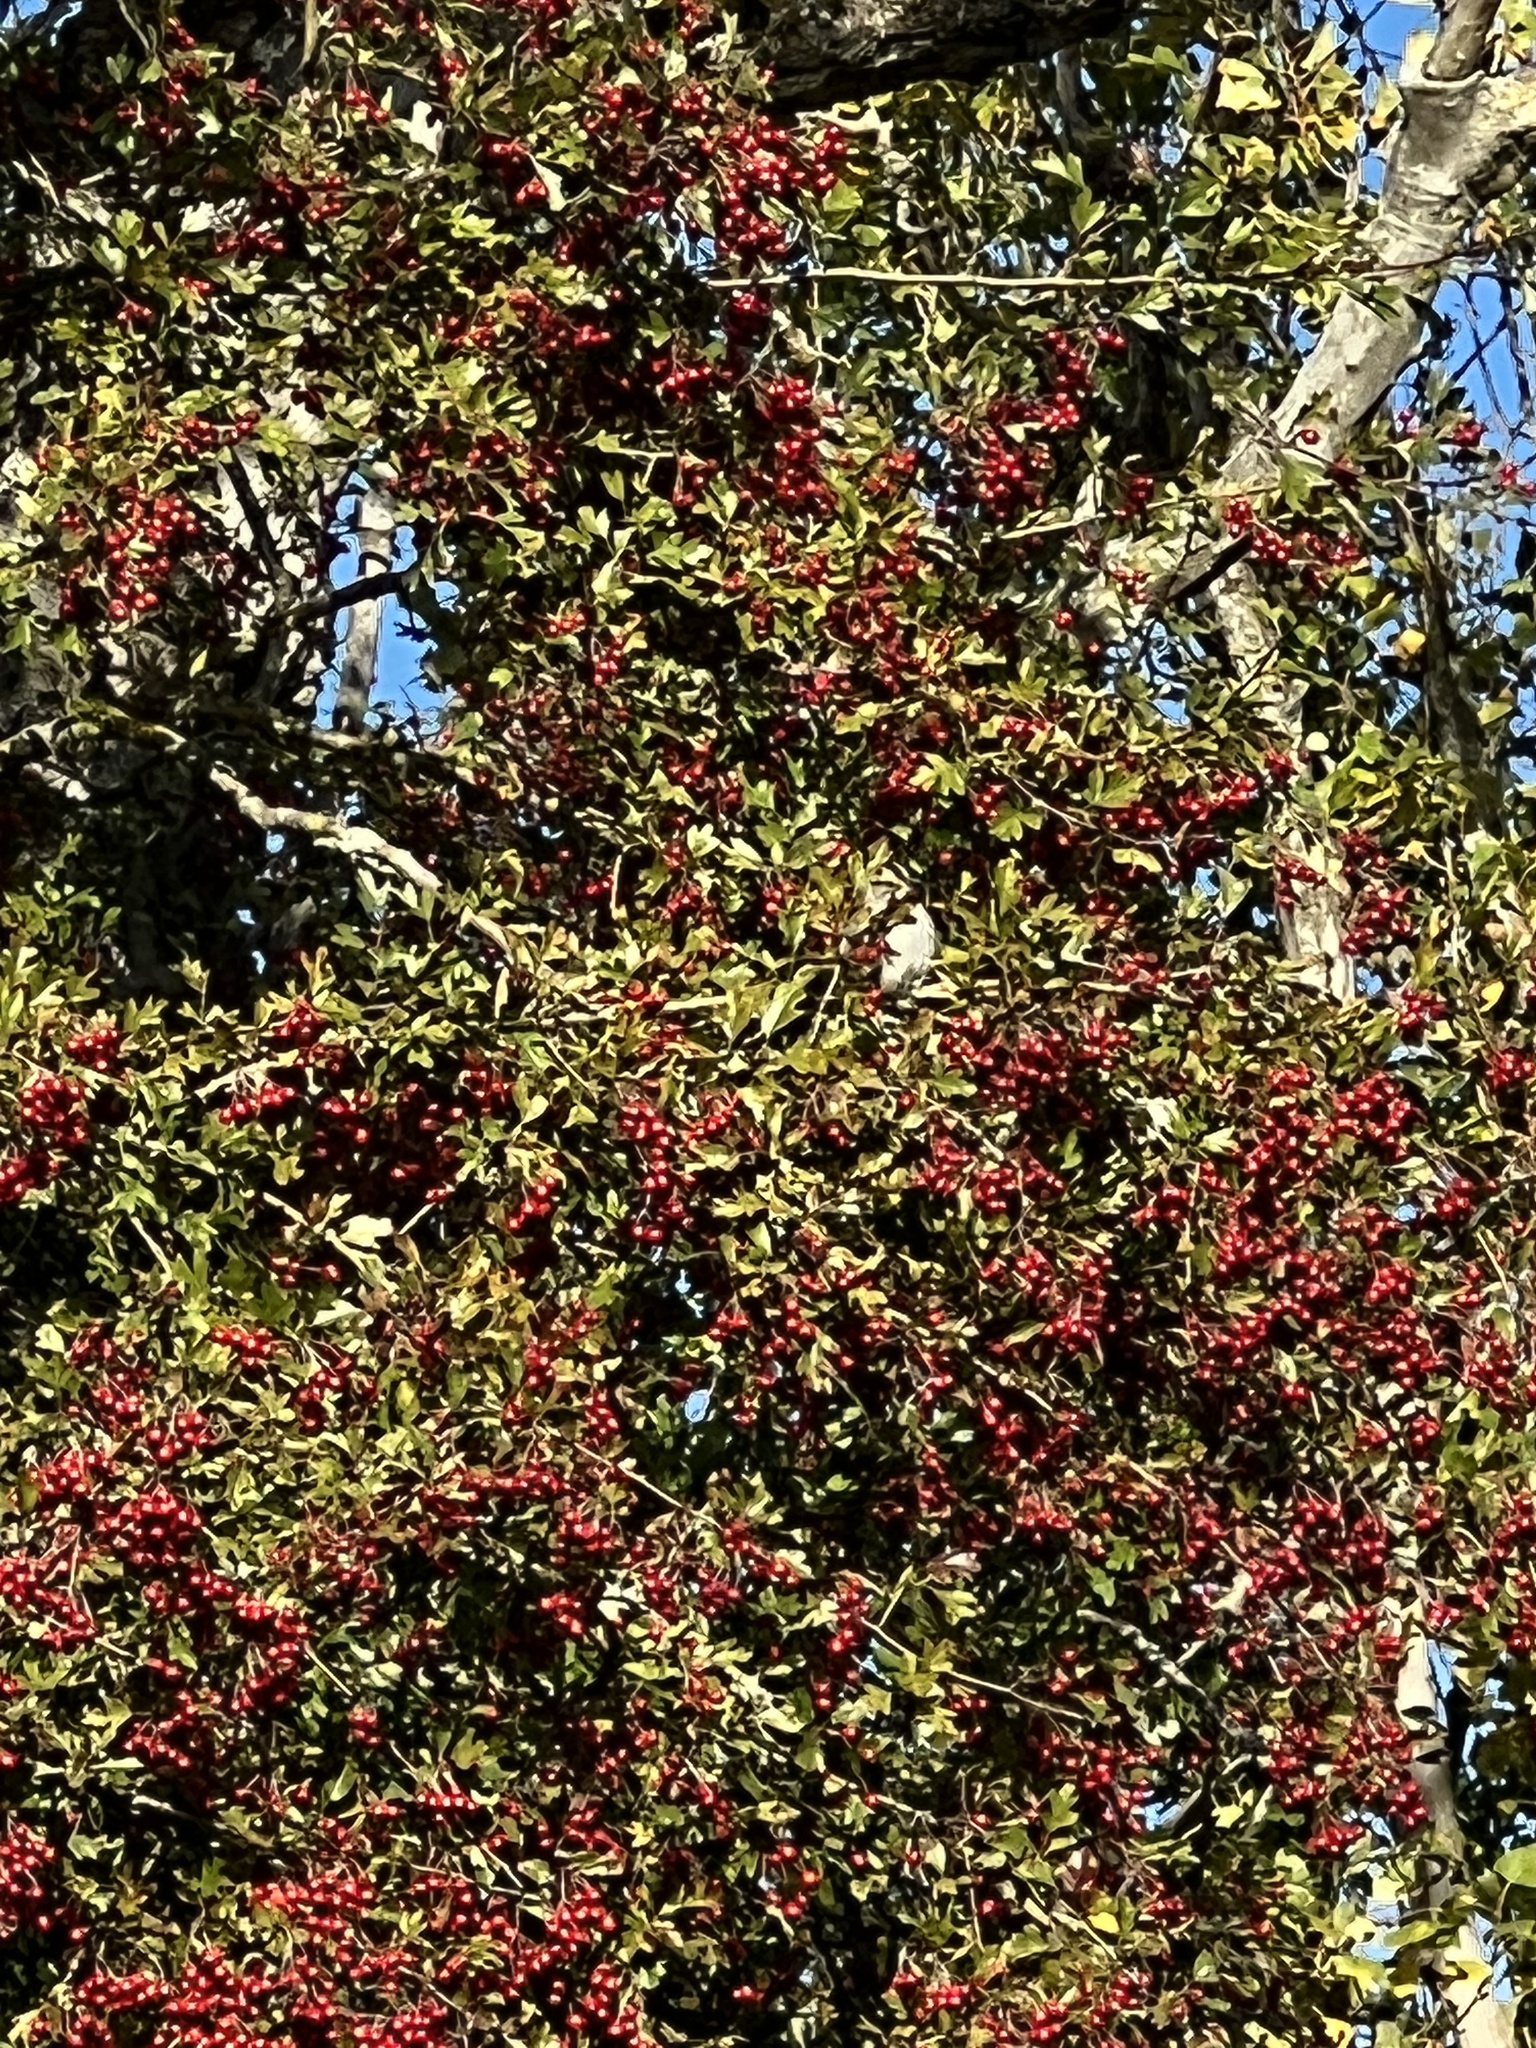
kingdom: Animalia
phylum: Chordata
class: Aves
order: Passeriformes
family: Passerellidae
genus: Zonotrichia
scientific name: Zonotrichia albicollis
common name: White-throated sparrow
